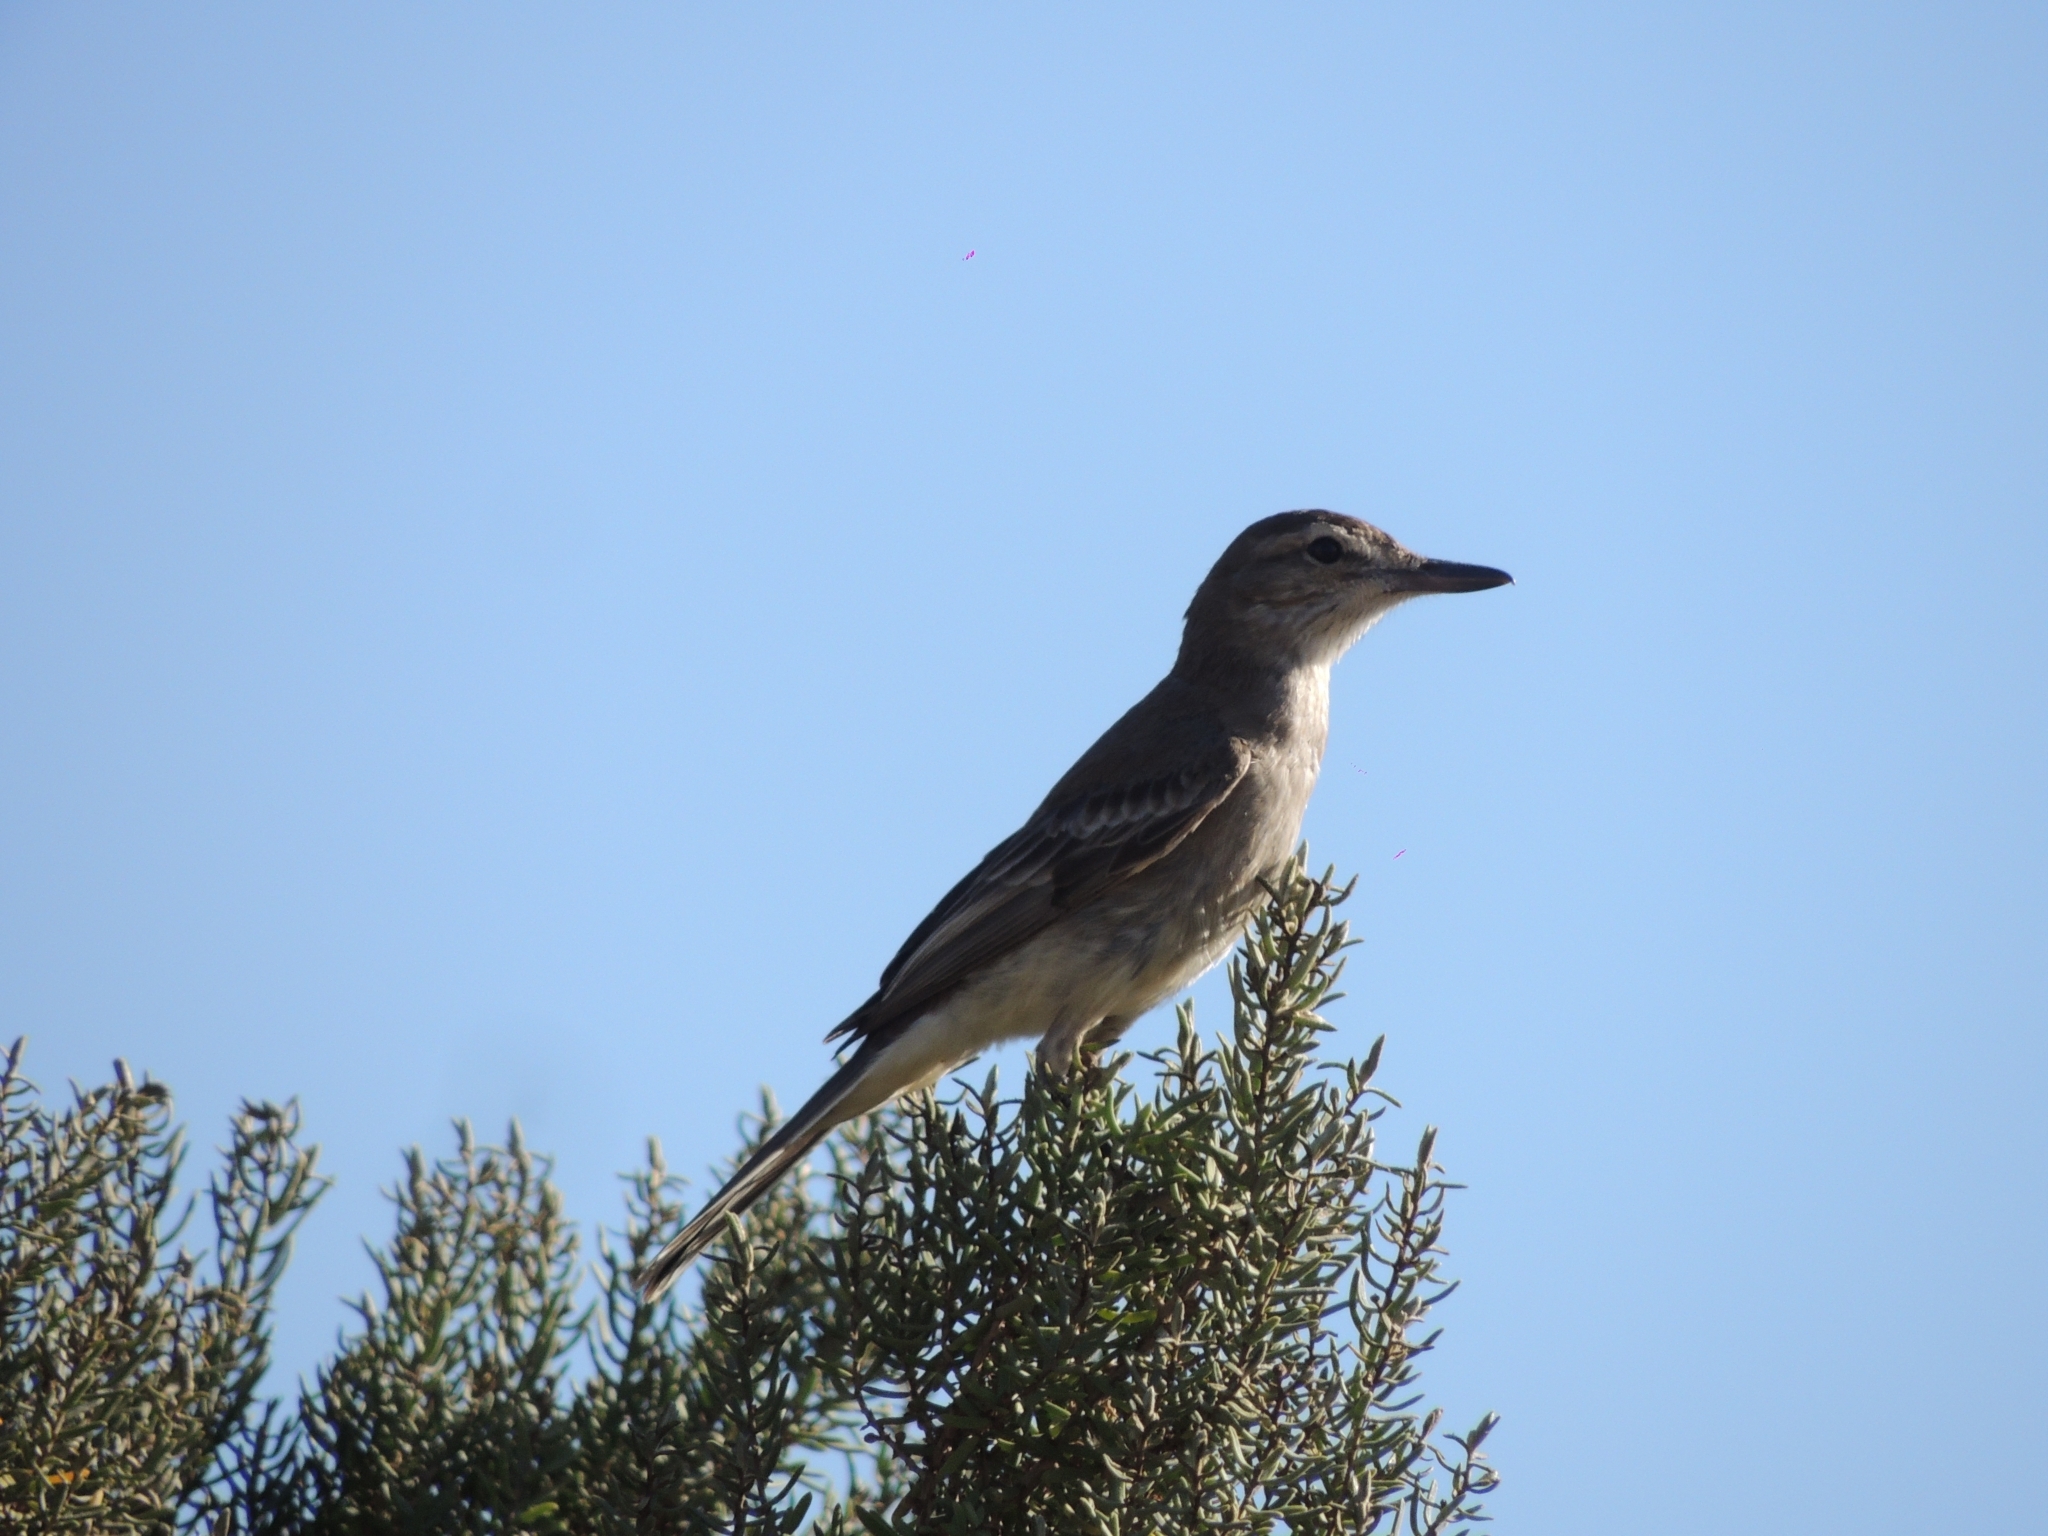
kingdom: Animalia
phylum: Chordata
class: Aves
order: Passeriformes
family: Tyrannidae
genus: Agriornis
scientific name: Agriornis micropterus
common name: Grey-bellied shrike-tyrant
